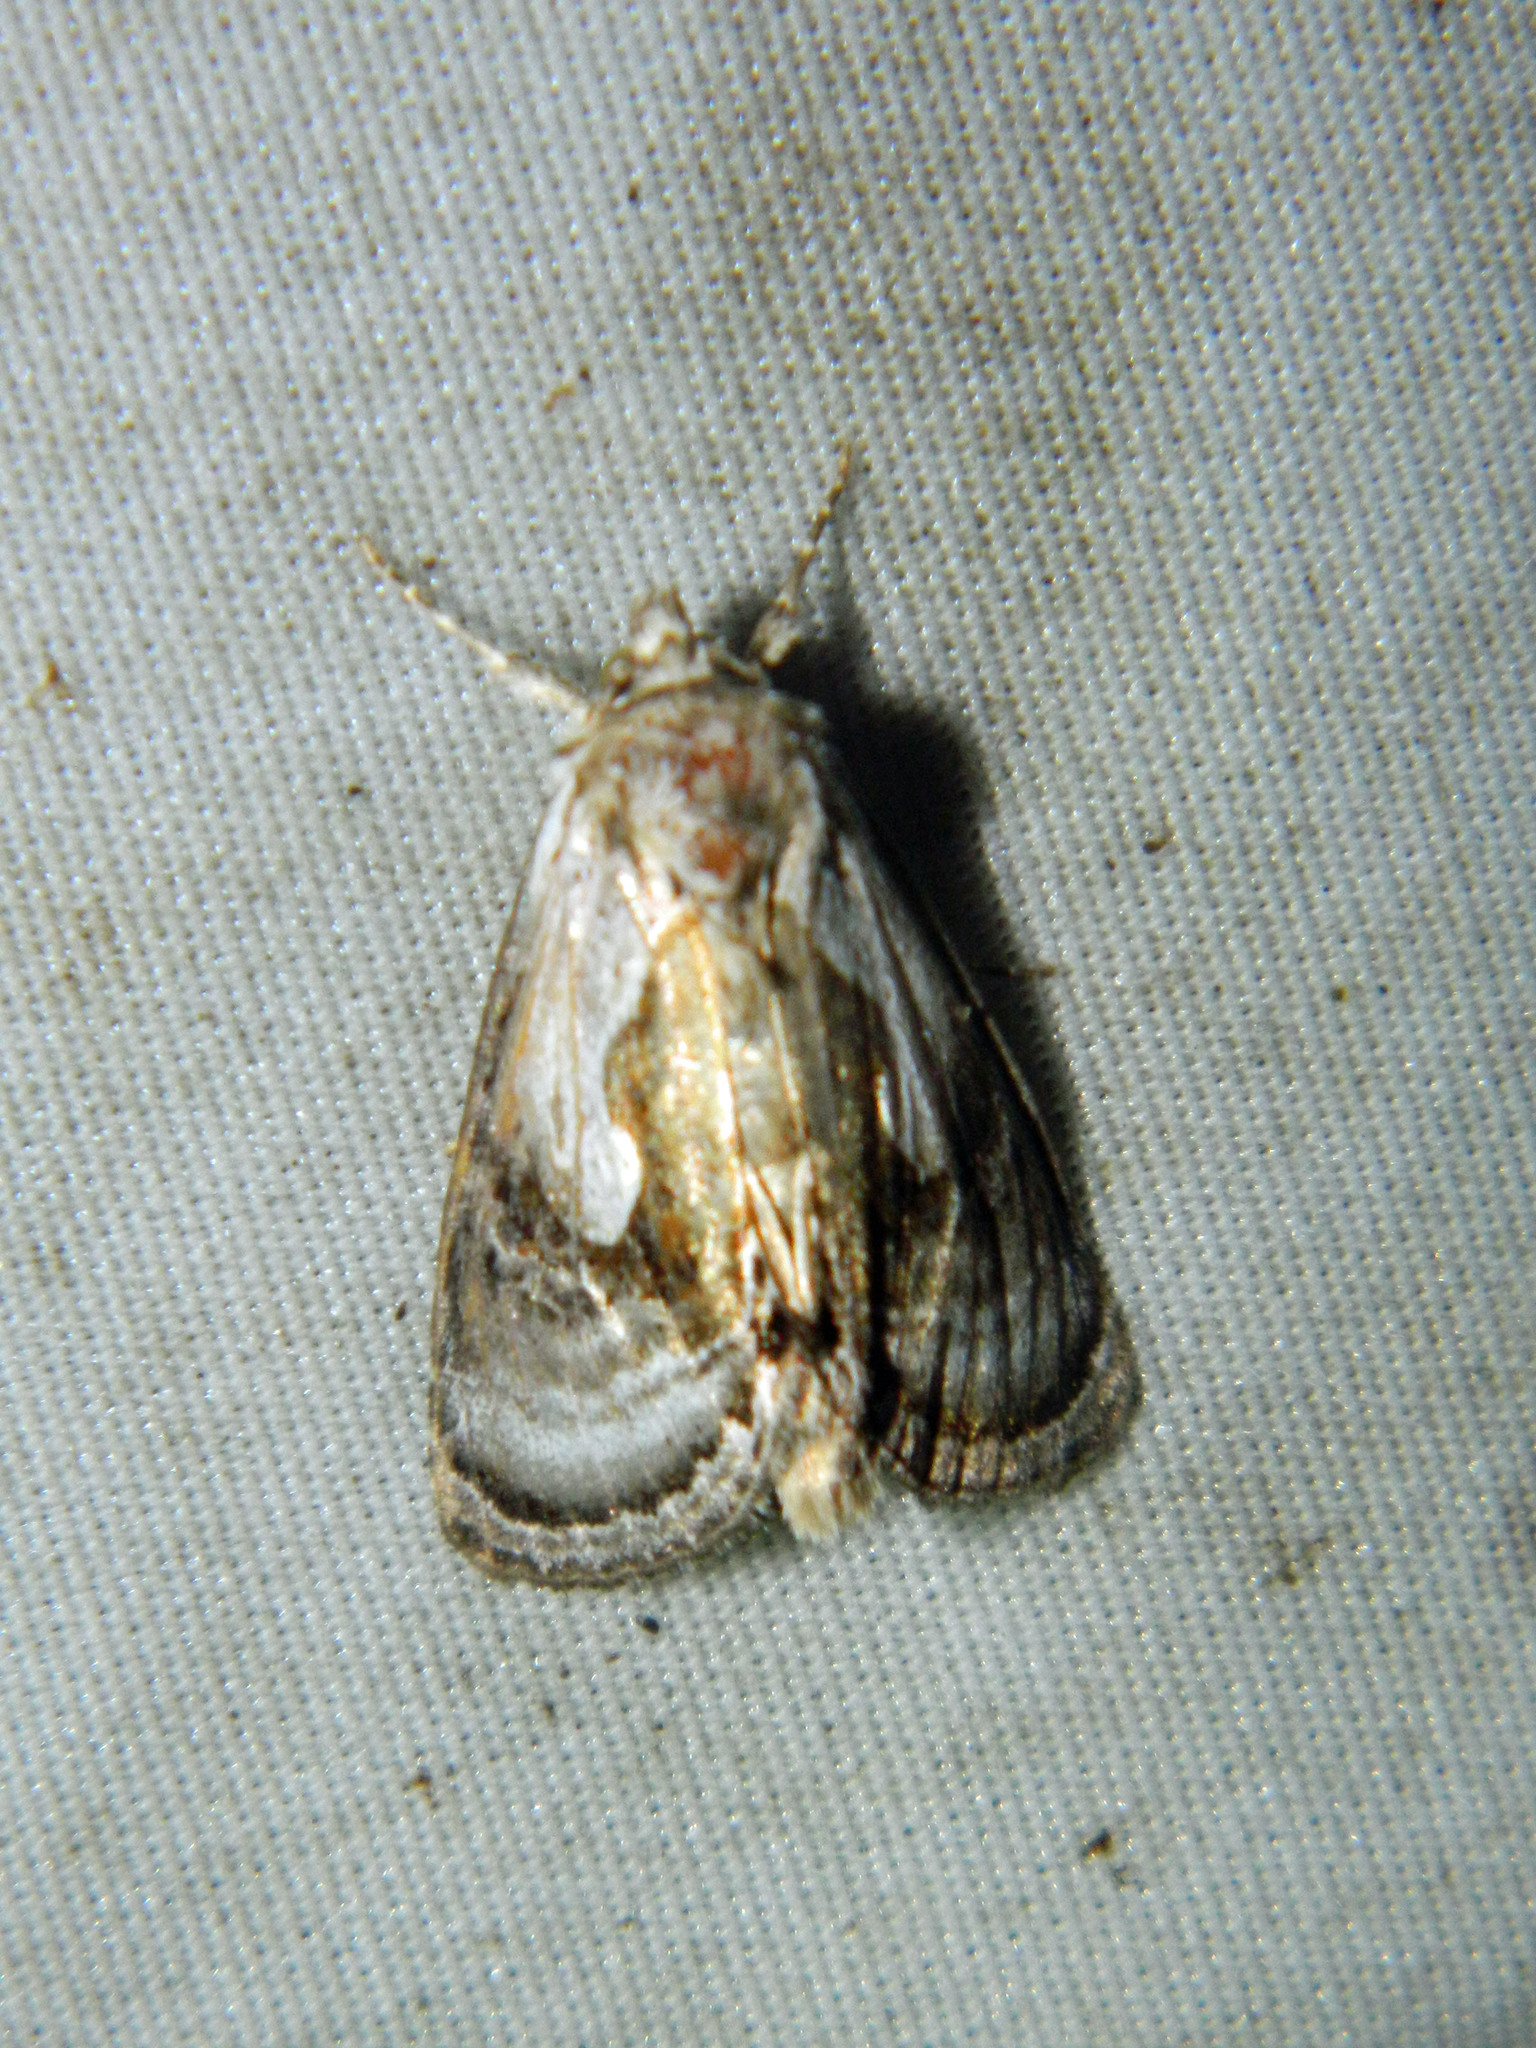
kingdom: Animalia
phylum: Arthropoda
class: Insecta
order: Lepidoptera
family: Noctuidae
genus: Chrysanympha
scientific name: Chrysanympha formosa
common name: Formosa looper moth
